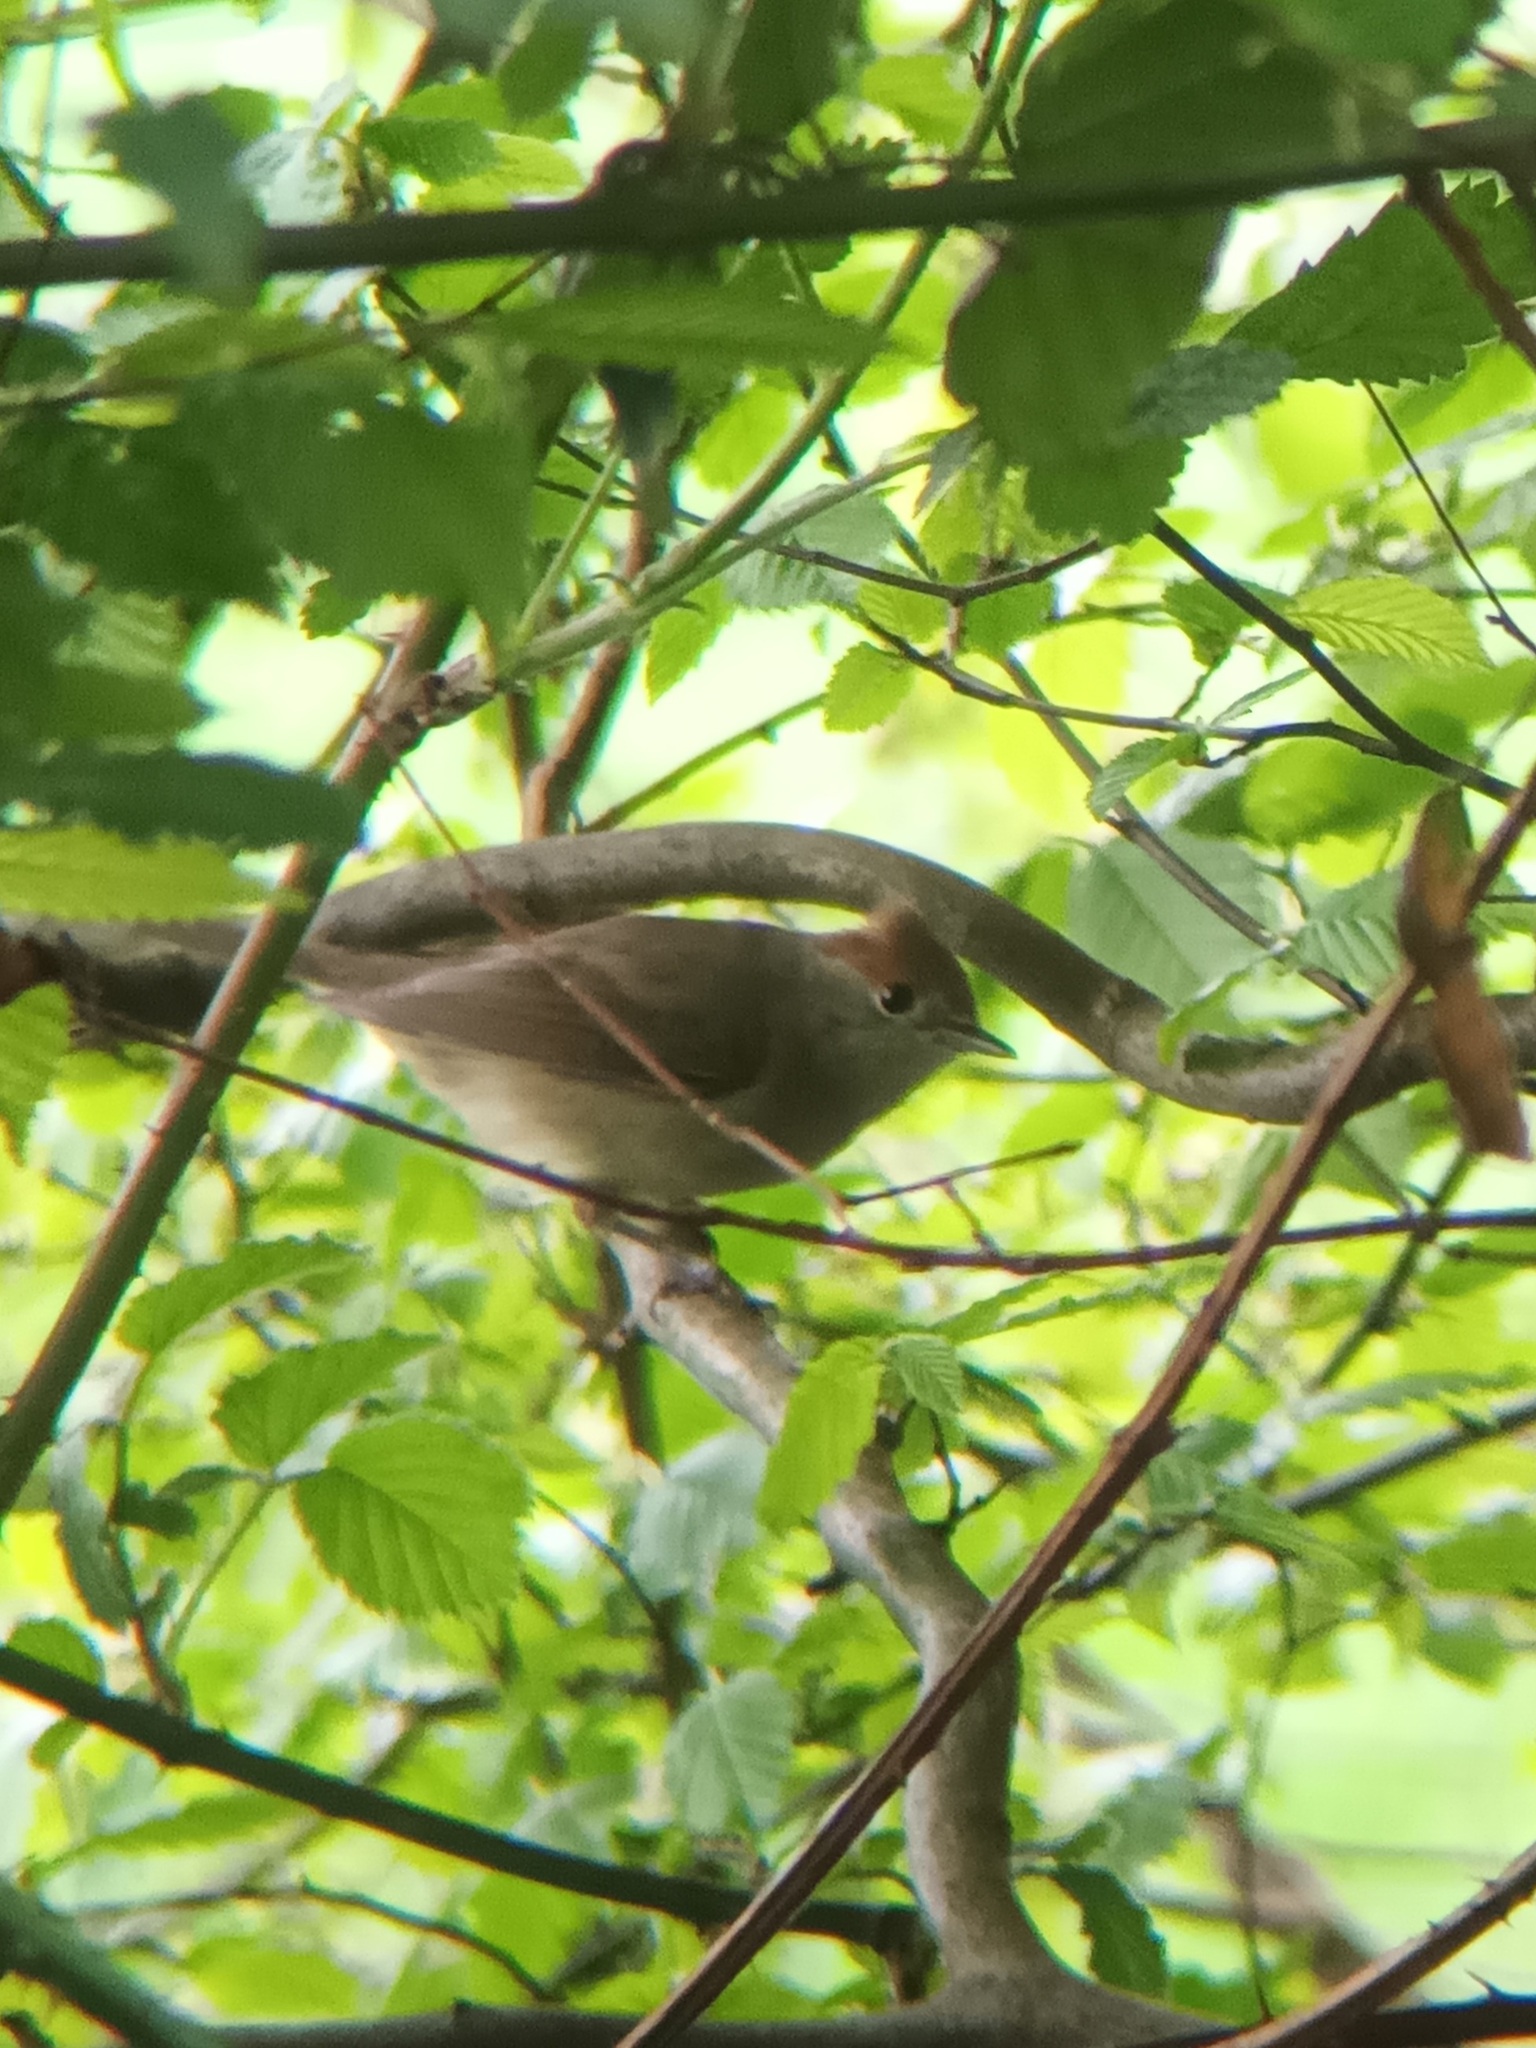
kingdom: Animalia
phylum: Chordata
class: Aves
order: Passeriformes
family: Sylviidae
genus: Sylvia
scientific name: Sylvia atricapilla
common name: Eurasian blackcap
